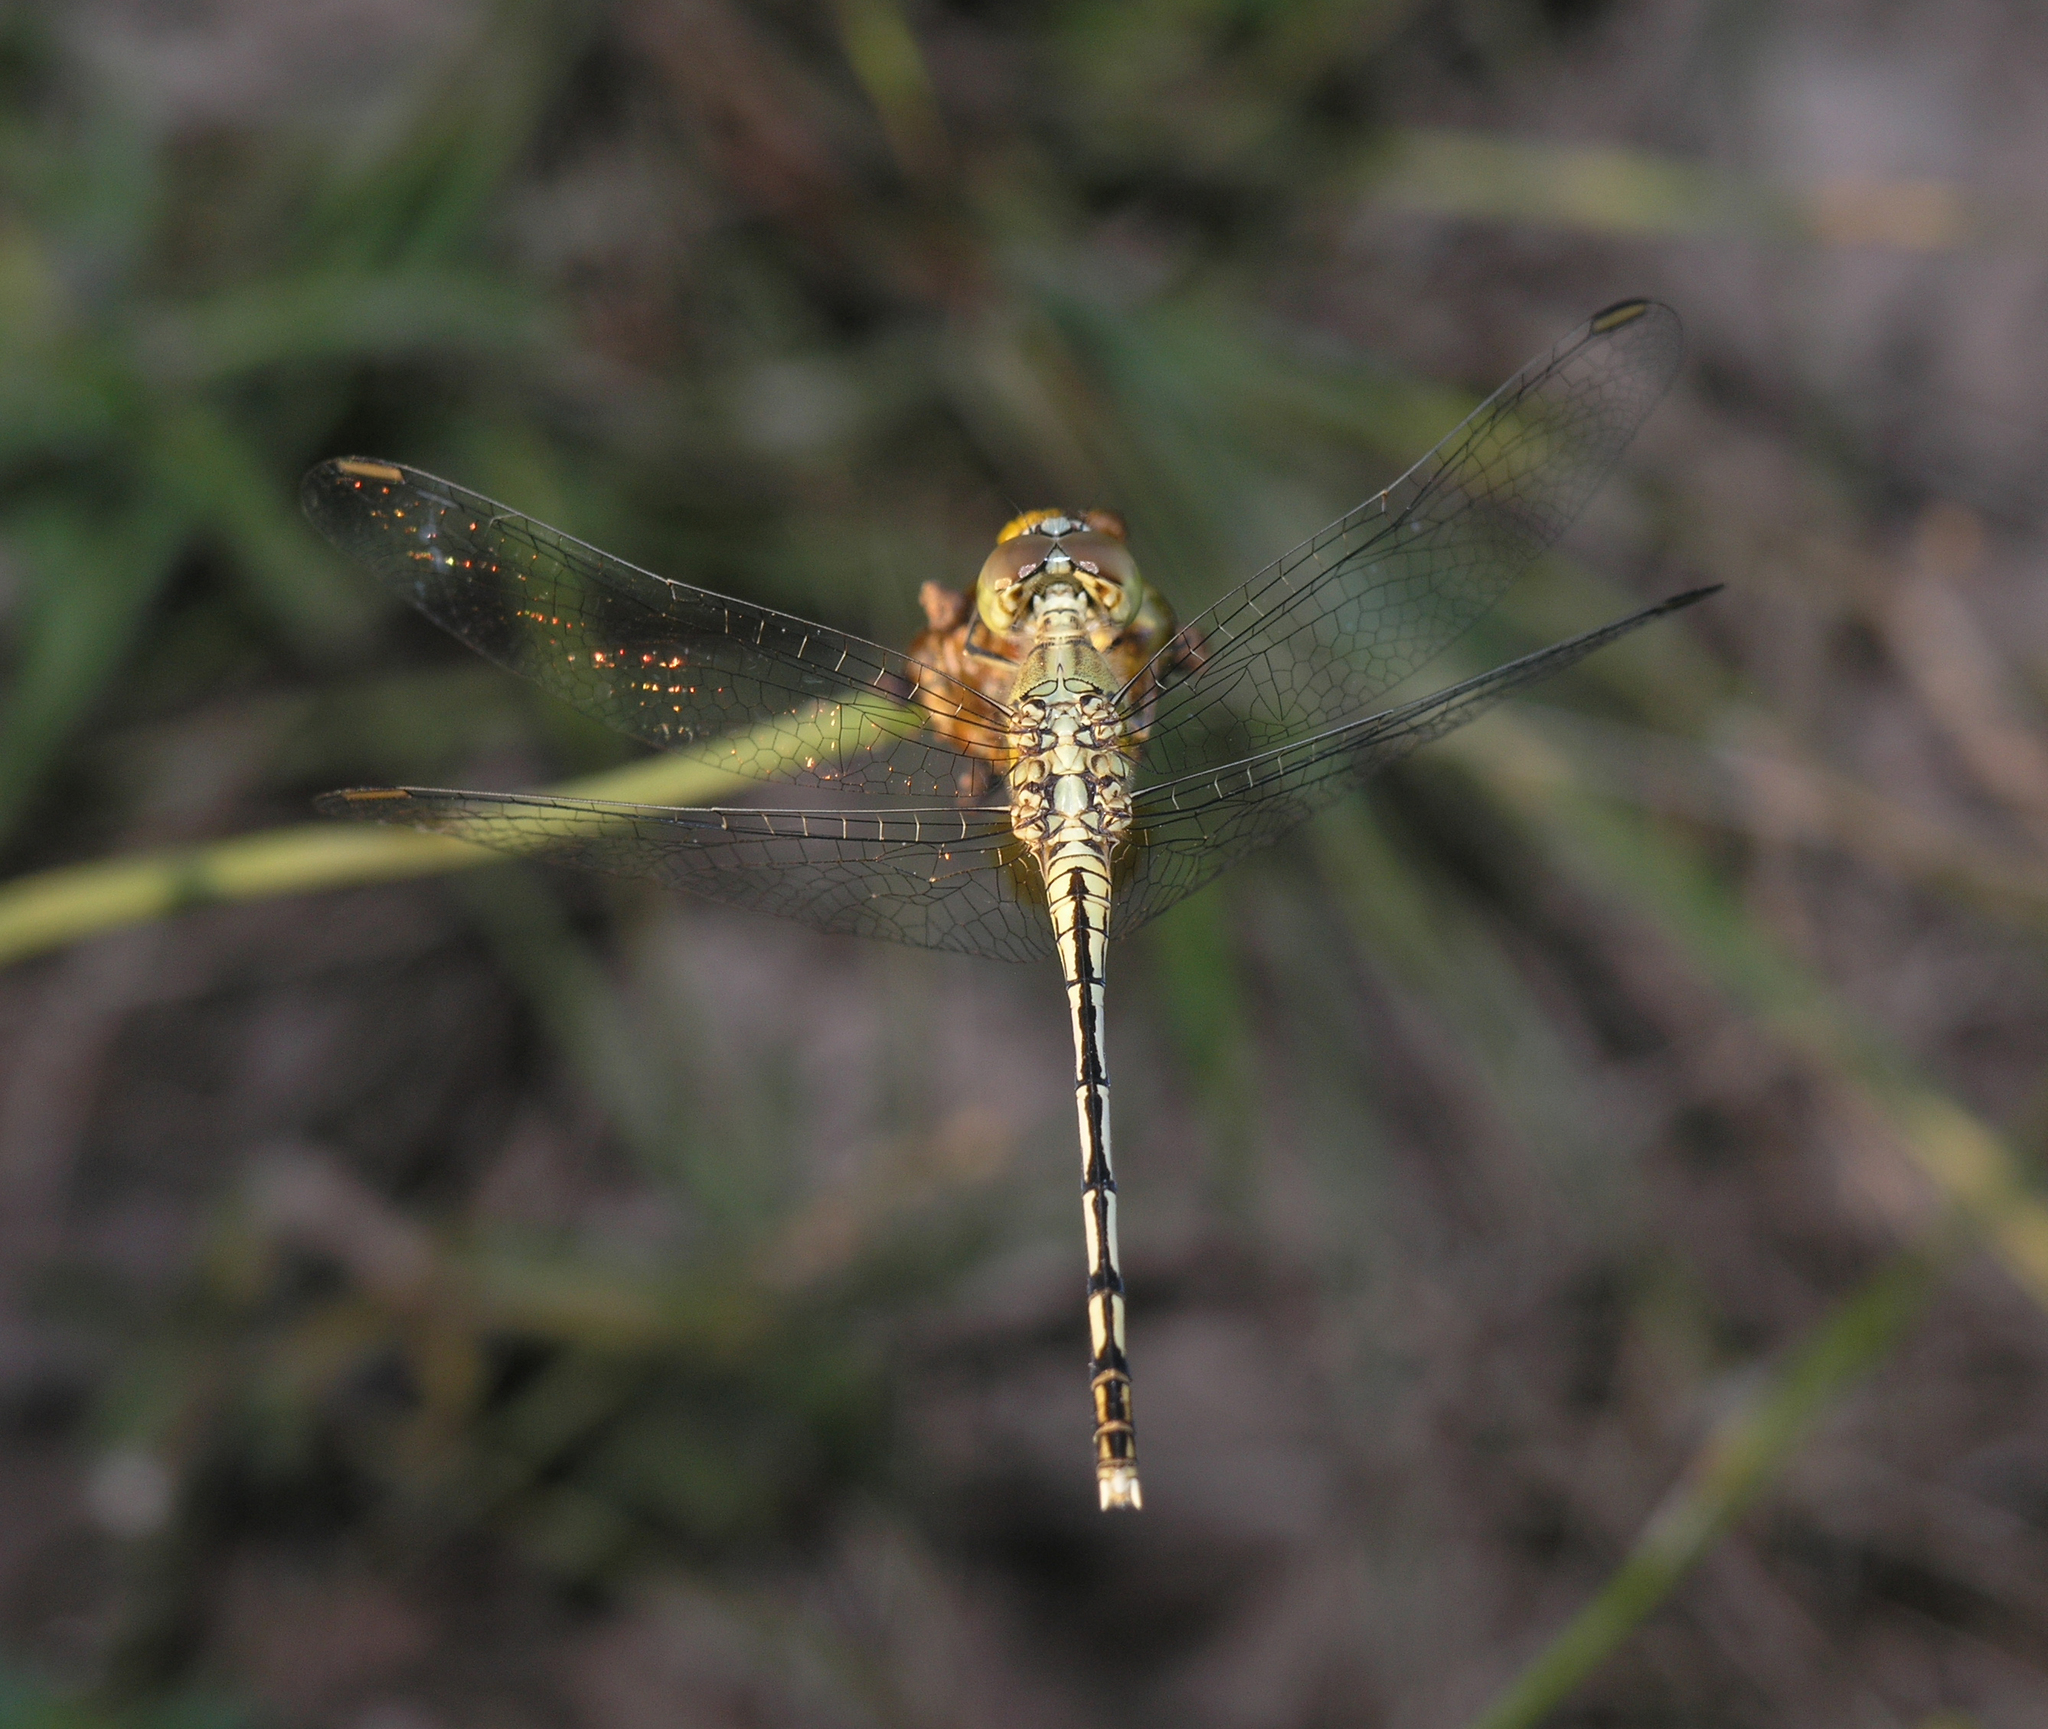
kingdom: Animalia
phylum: Arthropoda
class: Insecta
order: Odonata
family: Libellulidae
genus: Diplacodes
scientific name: Diplacodes trivialis
